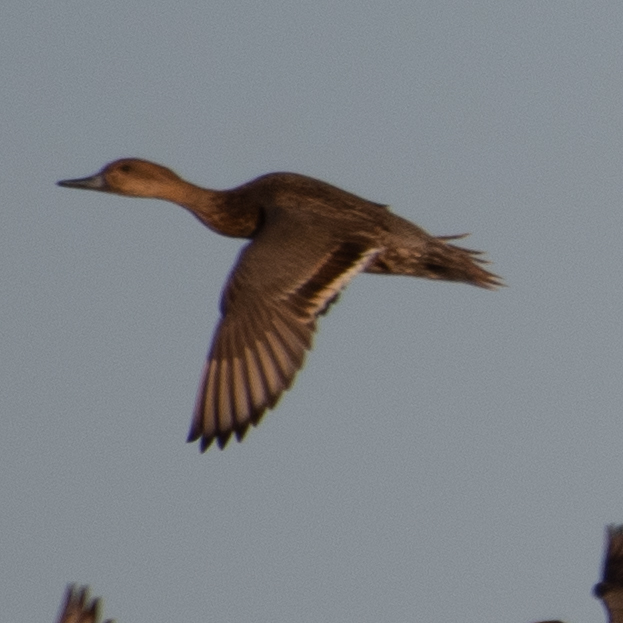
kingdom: Animalia
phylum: Chordata
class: Aves
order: Anseriformes
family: Anatidae
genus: Anas
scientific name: Anas acuta
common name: Northern pintail
